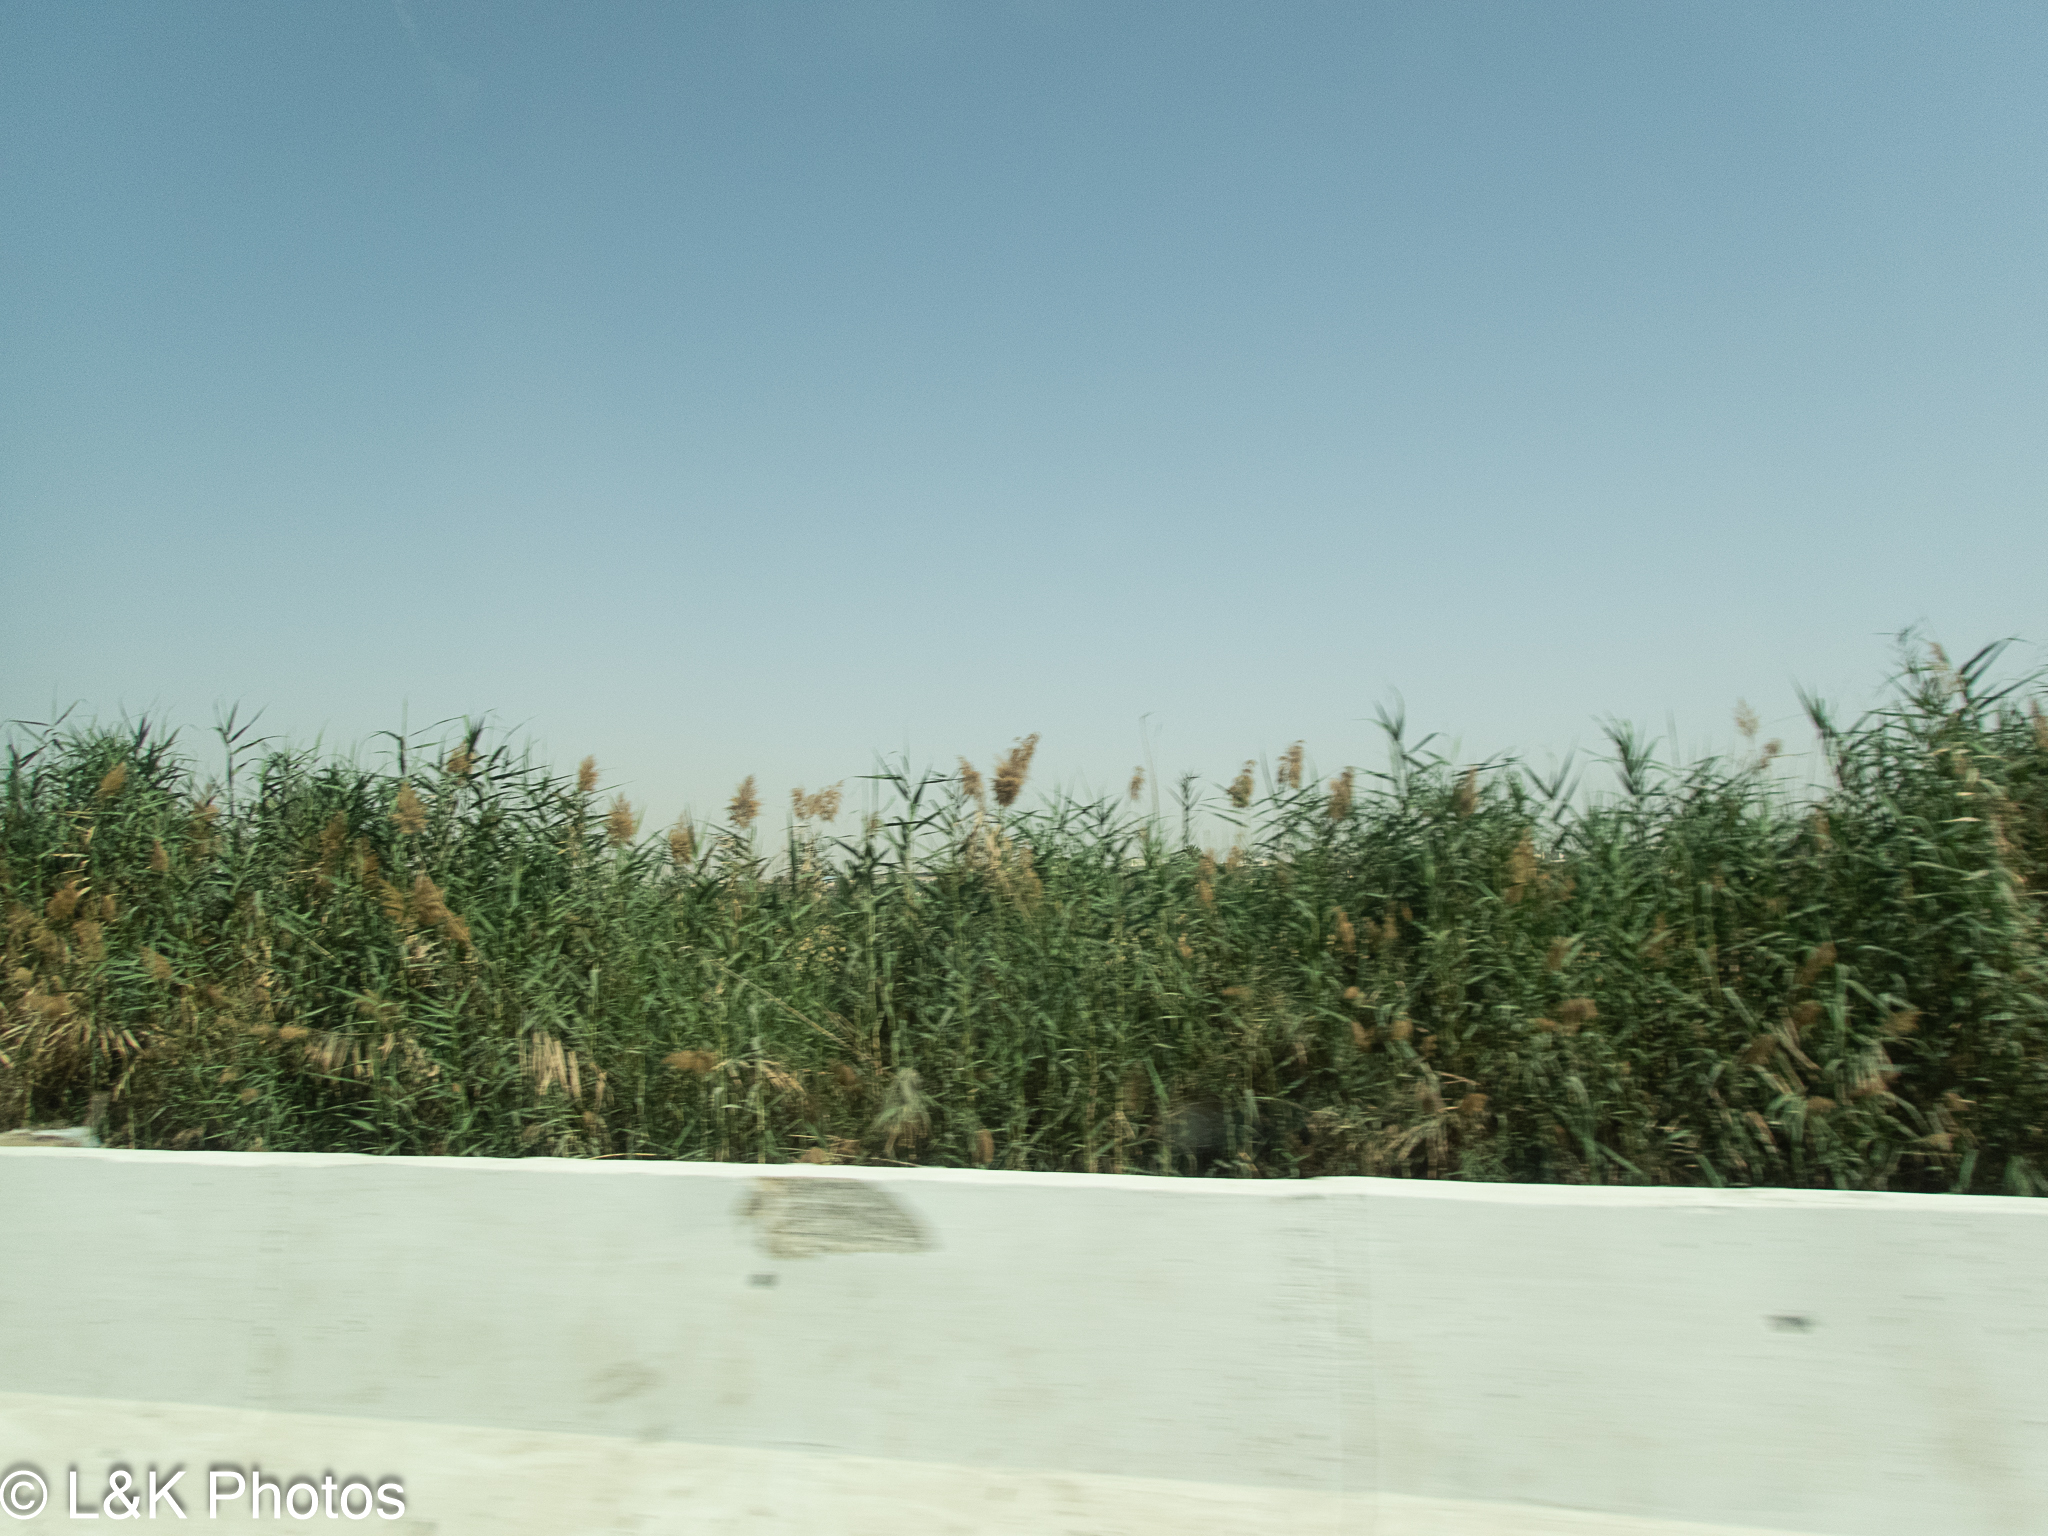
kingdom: Plantae
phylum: Tracheophyta
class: Liliopsida
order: Poales
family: Poaceae
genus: Phragmites
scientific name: Phragmites australis
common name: Common reed
